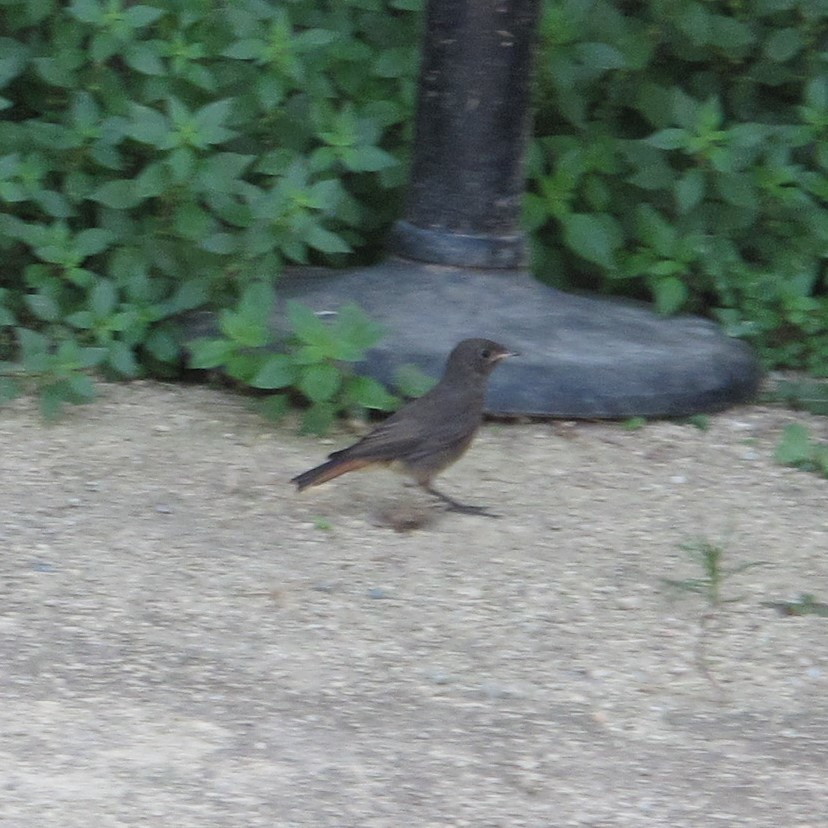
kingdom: Animalia
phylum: Chordata
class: Aves
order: Passeriformes
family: Muscicapidae
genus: Phoenicurus
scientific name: Phoenicurus ochruros
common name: Black redstart
